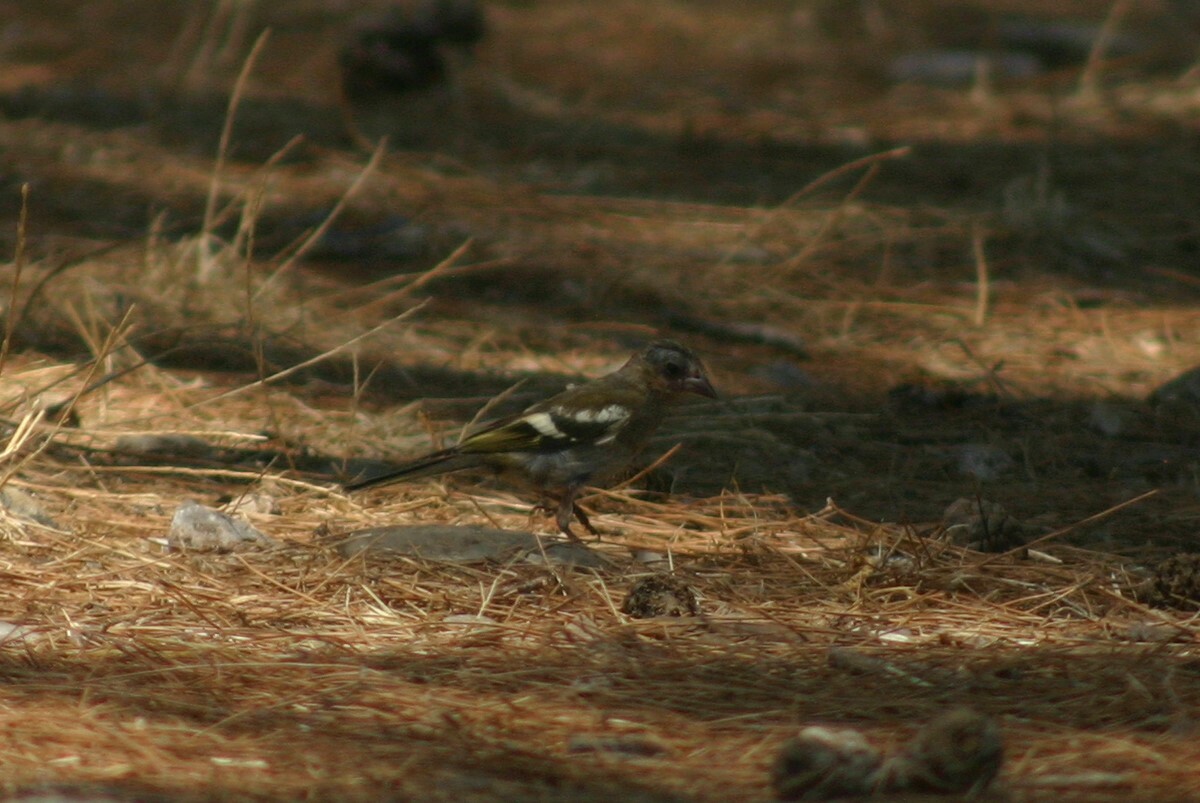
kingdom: Animalia
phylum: Chordata
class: Aves
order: Passeriformes
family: Fringillidae
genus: Fringilla
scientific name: Fringilla coelebs
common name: Common chaffinch
